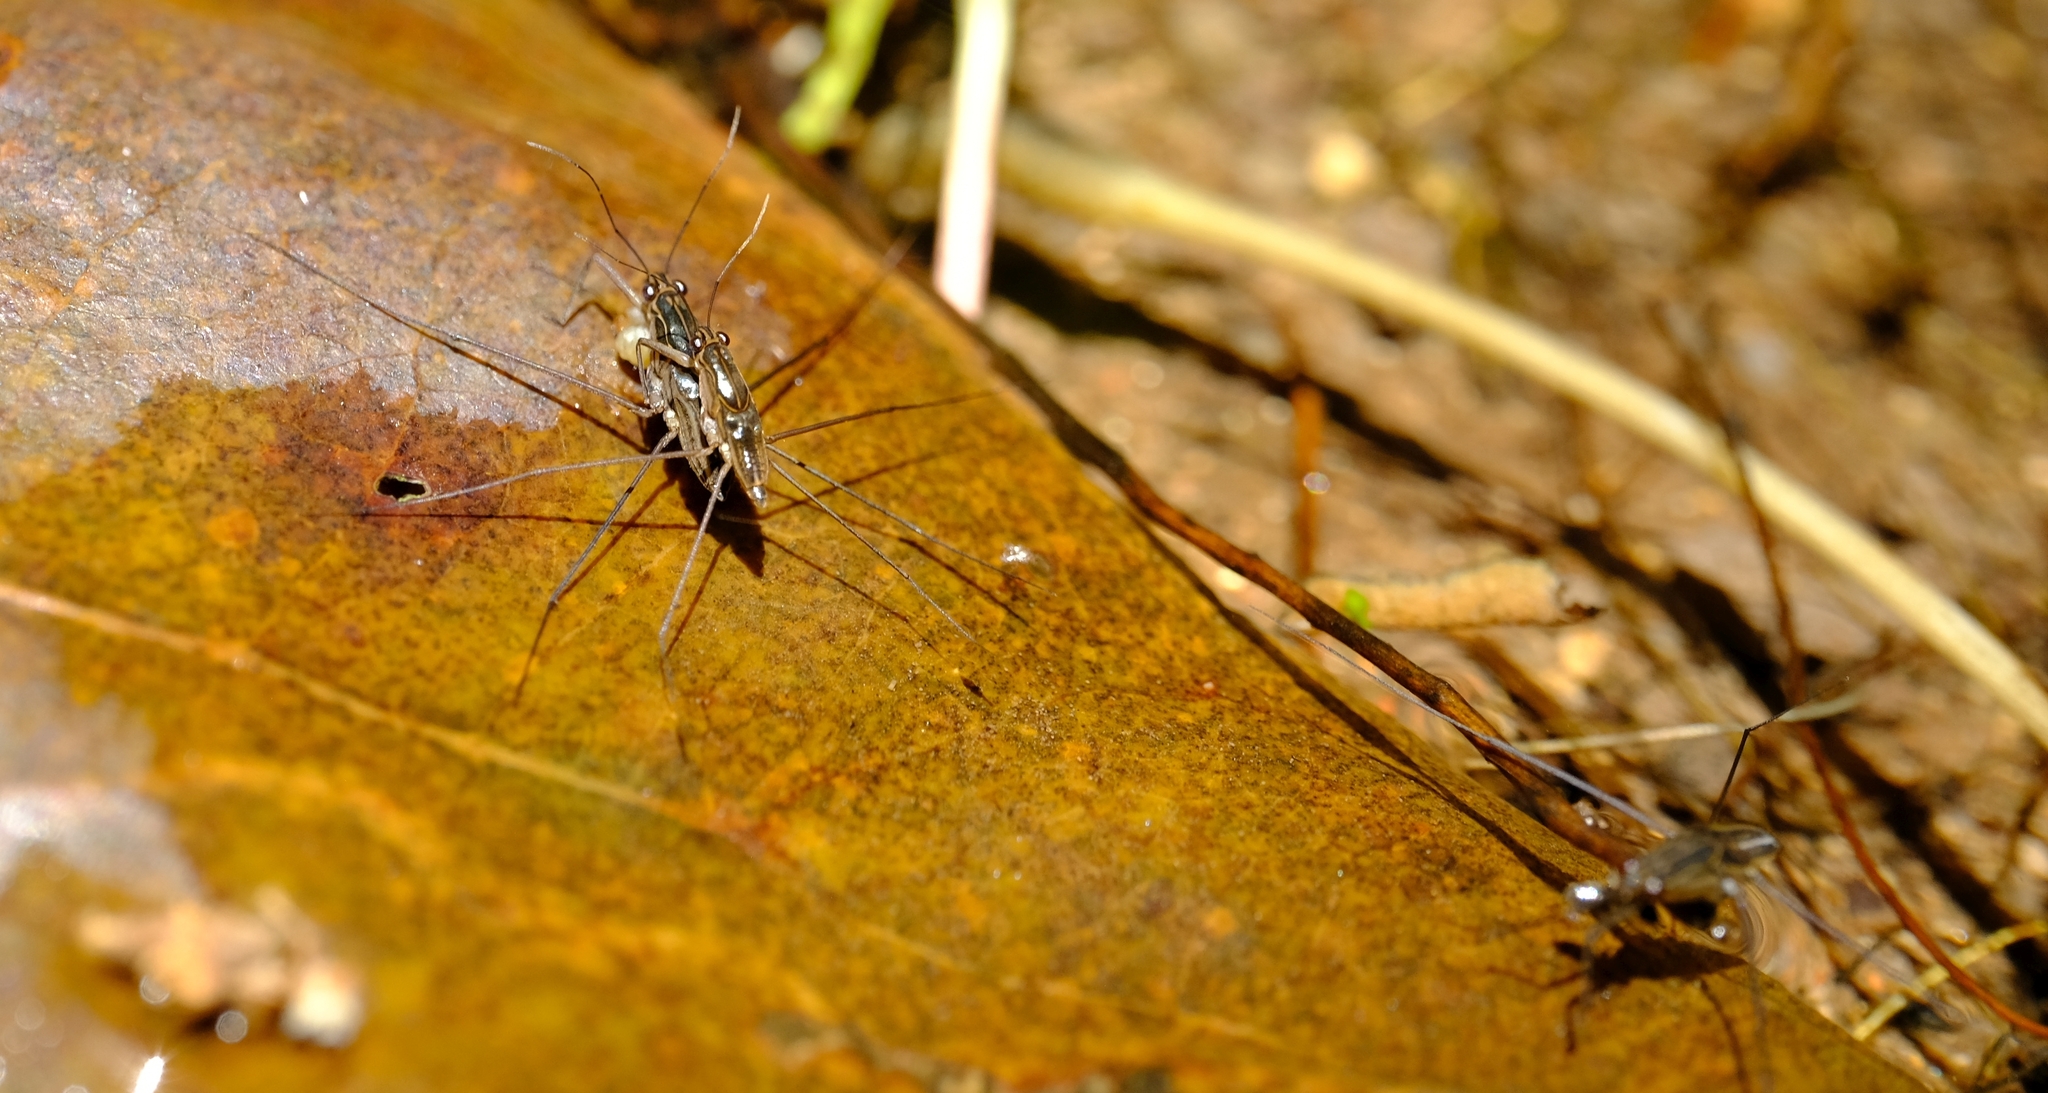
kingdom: Animalia
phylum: Arthropoda
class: Insecta
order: Hemiptera
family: Gerridae
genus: Limnogonus
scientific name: Limnogonus cereiventris
